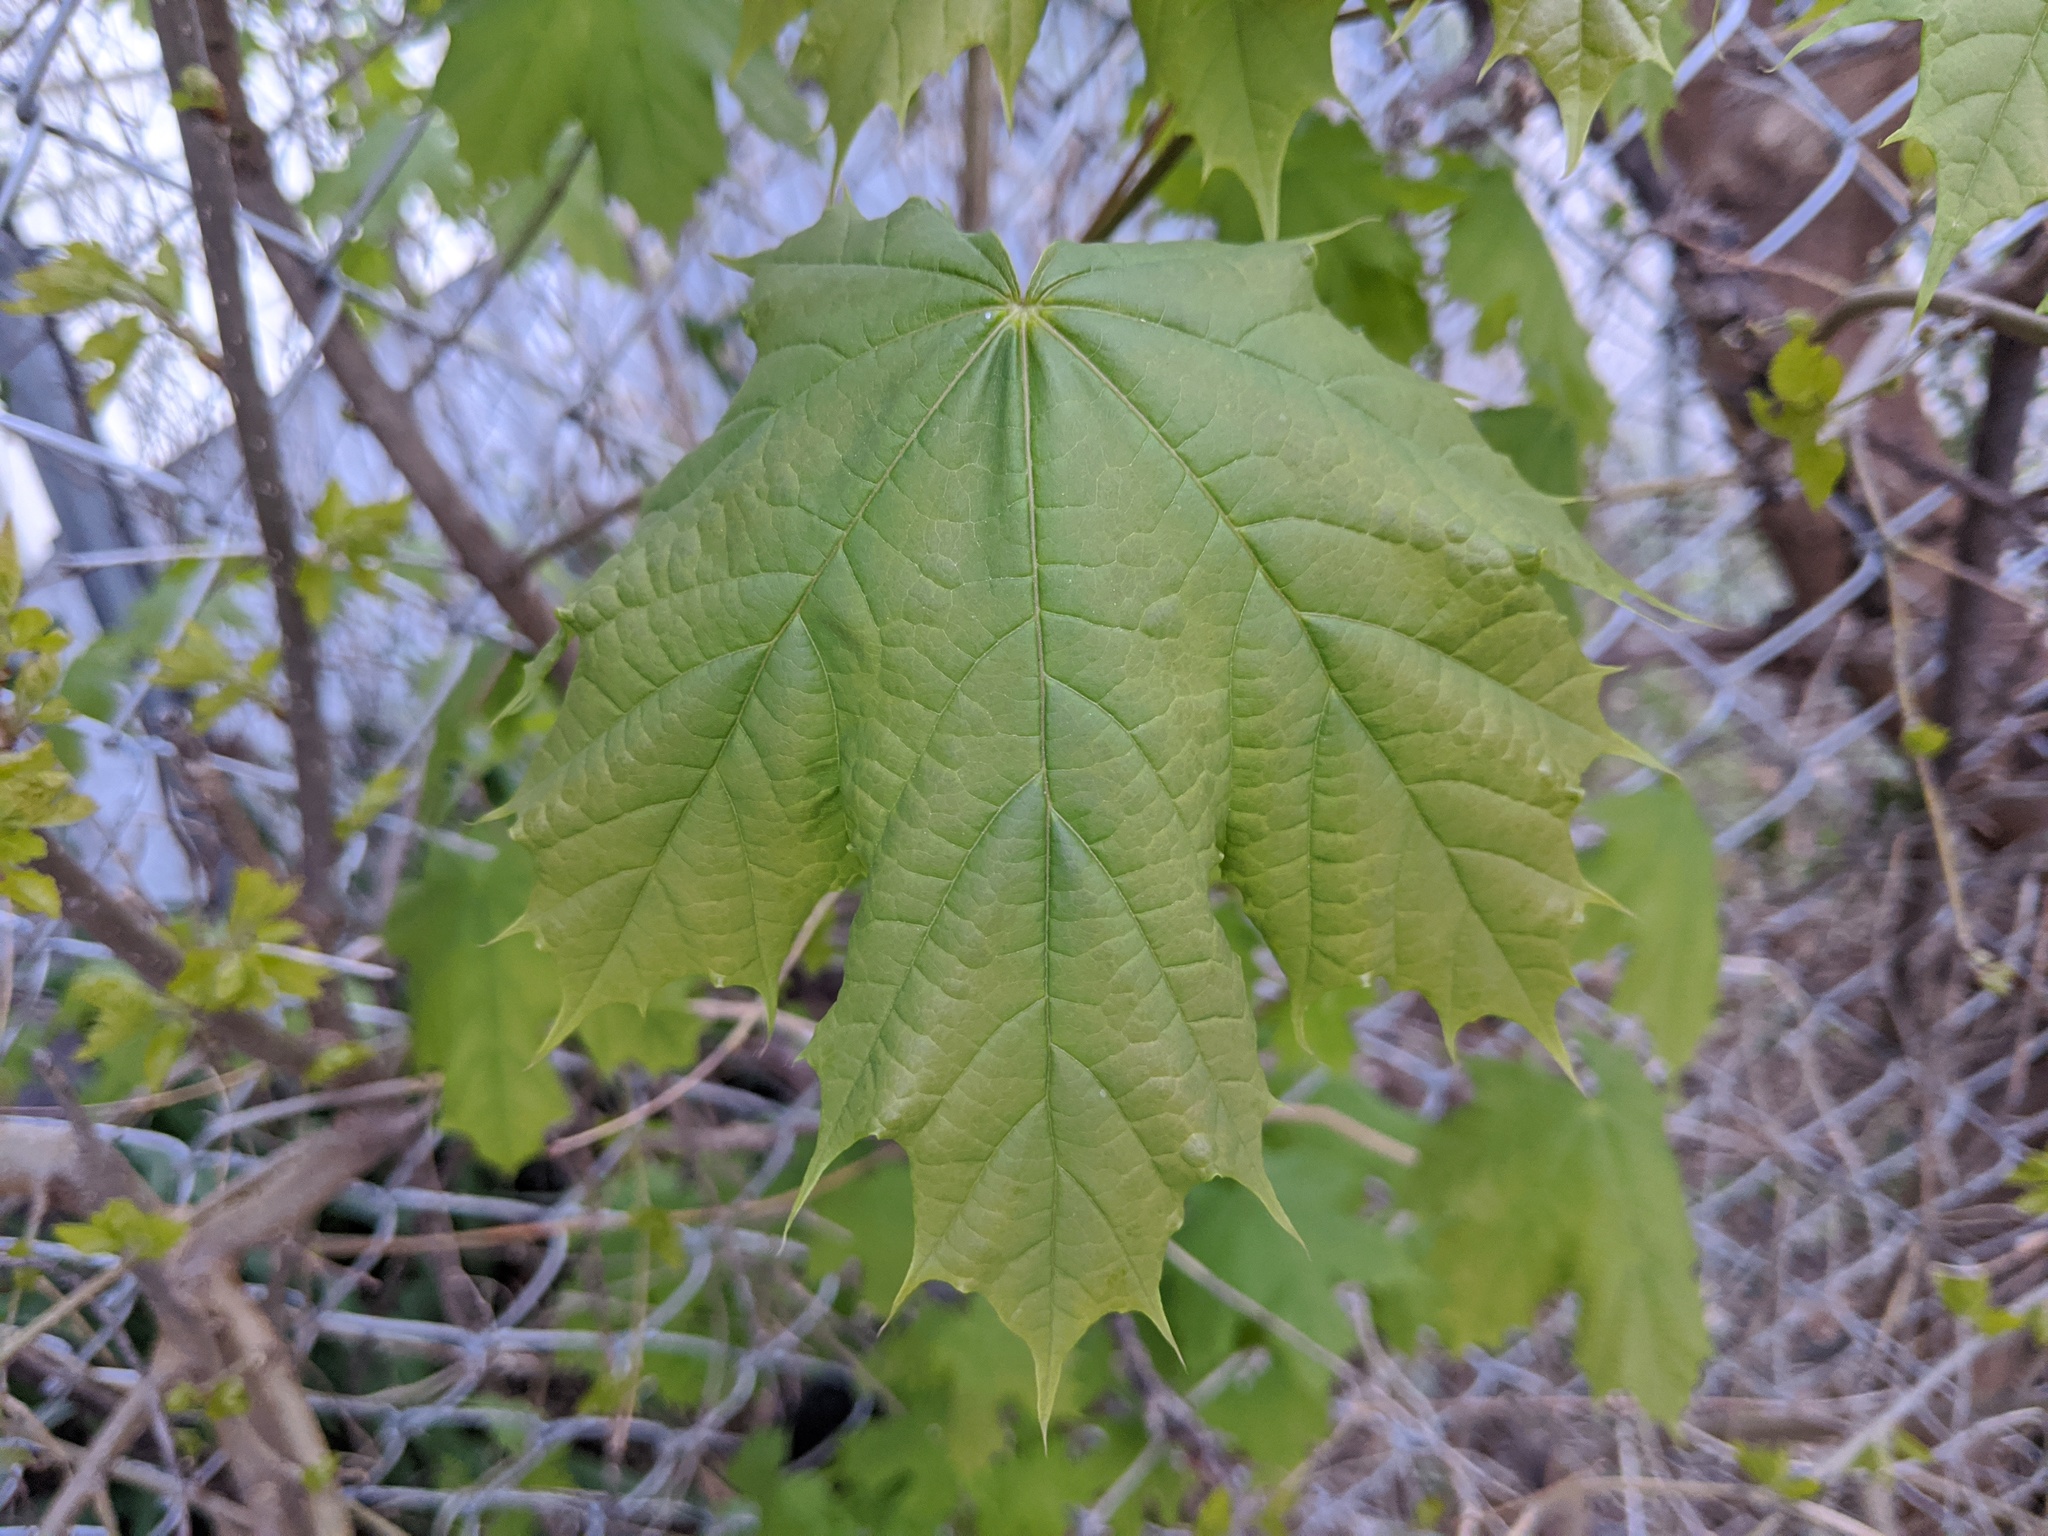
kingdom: Plantae
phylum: Tracheophyta
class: Magnoliopsida
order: Sapindales
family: Sapindaceae
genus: Acer
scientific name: Acer platanoides
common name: Norway maple
